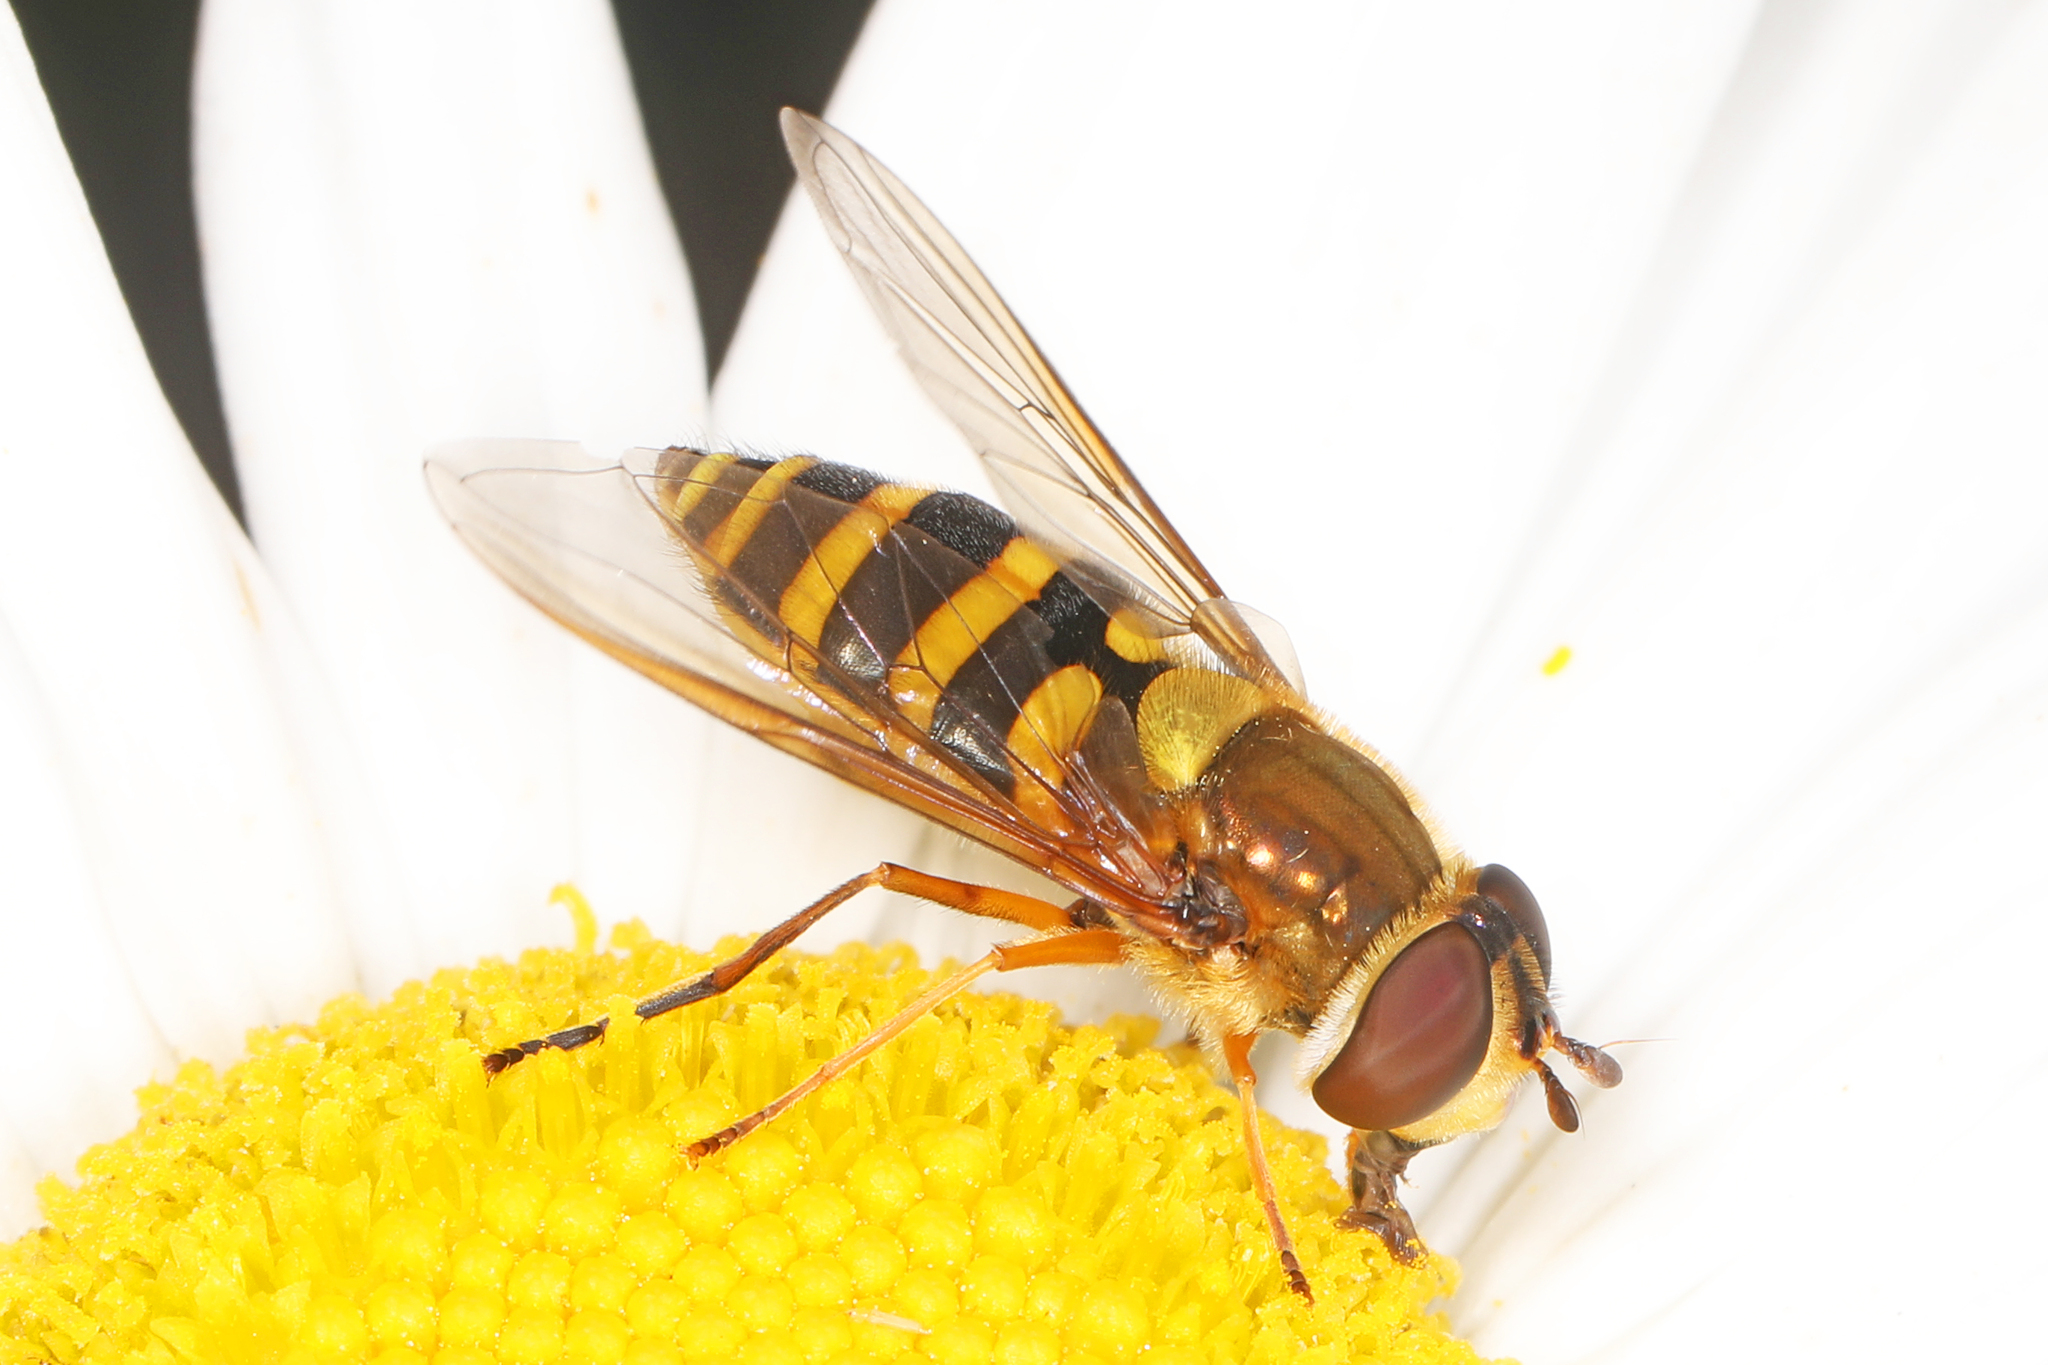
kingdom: Animalia
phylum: Arthropoda
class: Insecta
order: Diptera
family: Syrphidae
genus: Syrphus
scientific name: Syrphus ribesii
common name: Common flower fly
